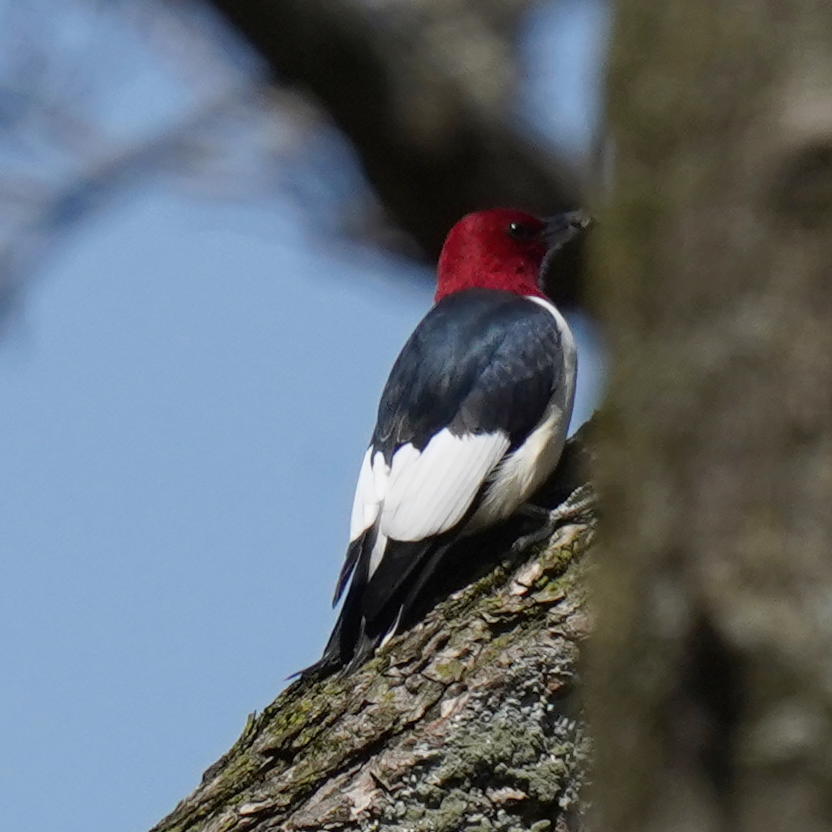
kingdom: Animalia
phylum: Chordata
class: Aves
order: Piciformes
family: Picidae
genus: Melanerpes
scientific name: Melanerpes erythrocephalus
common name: Red-headed woodpecker
